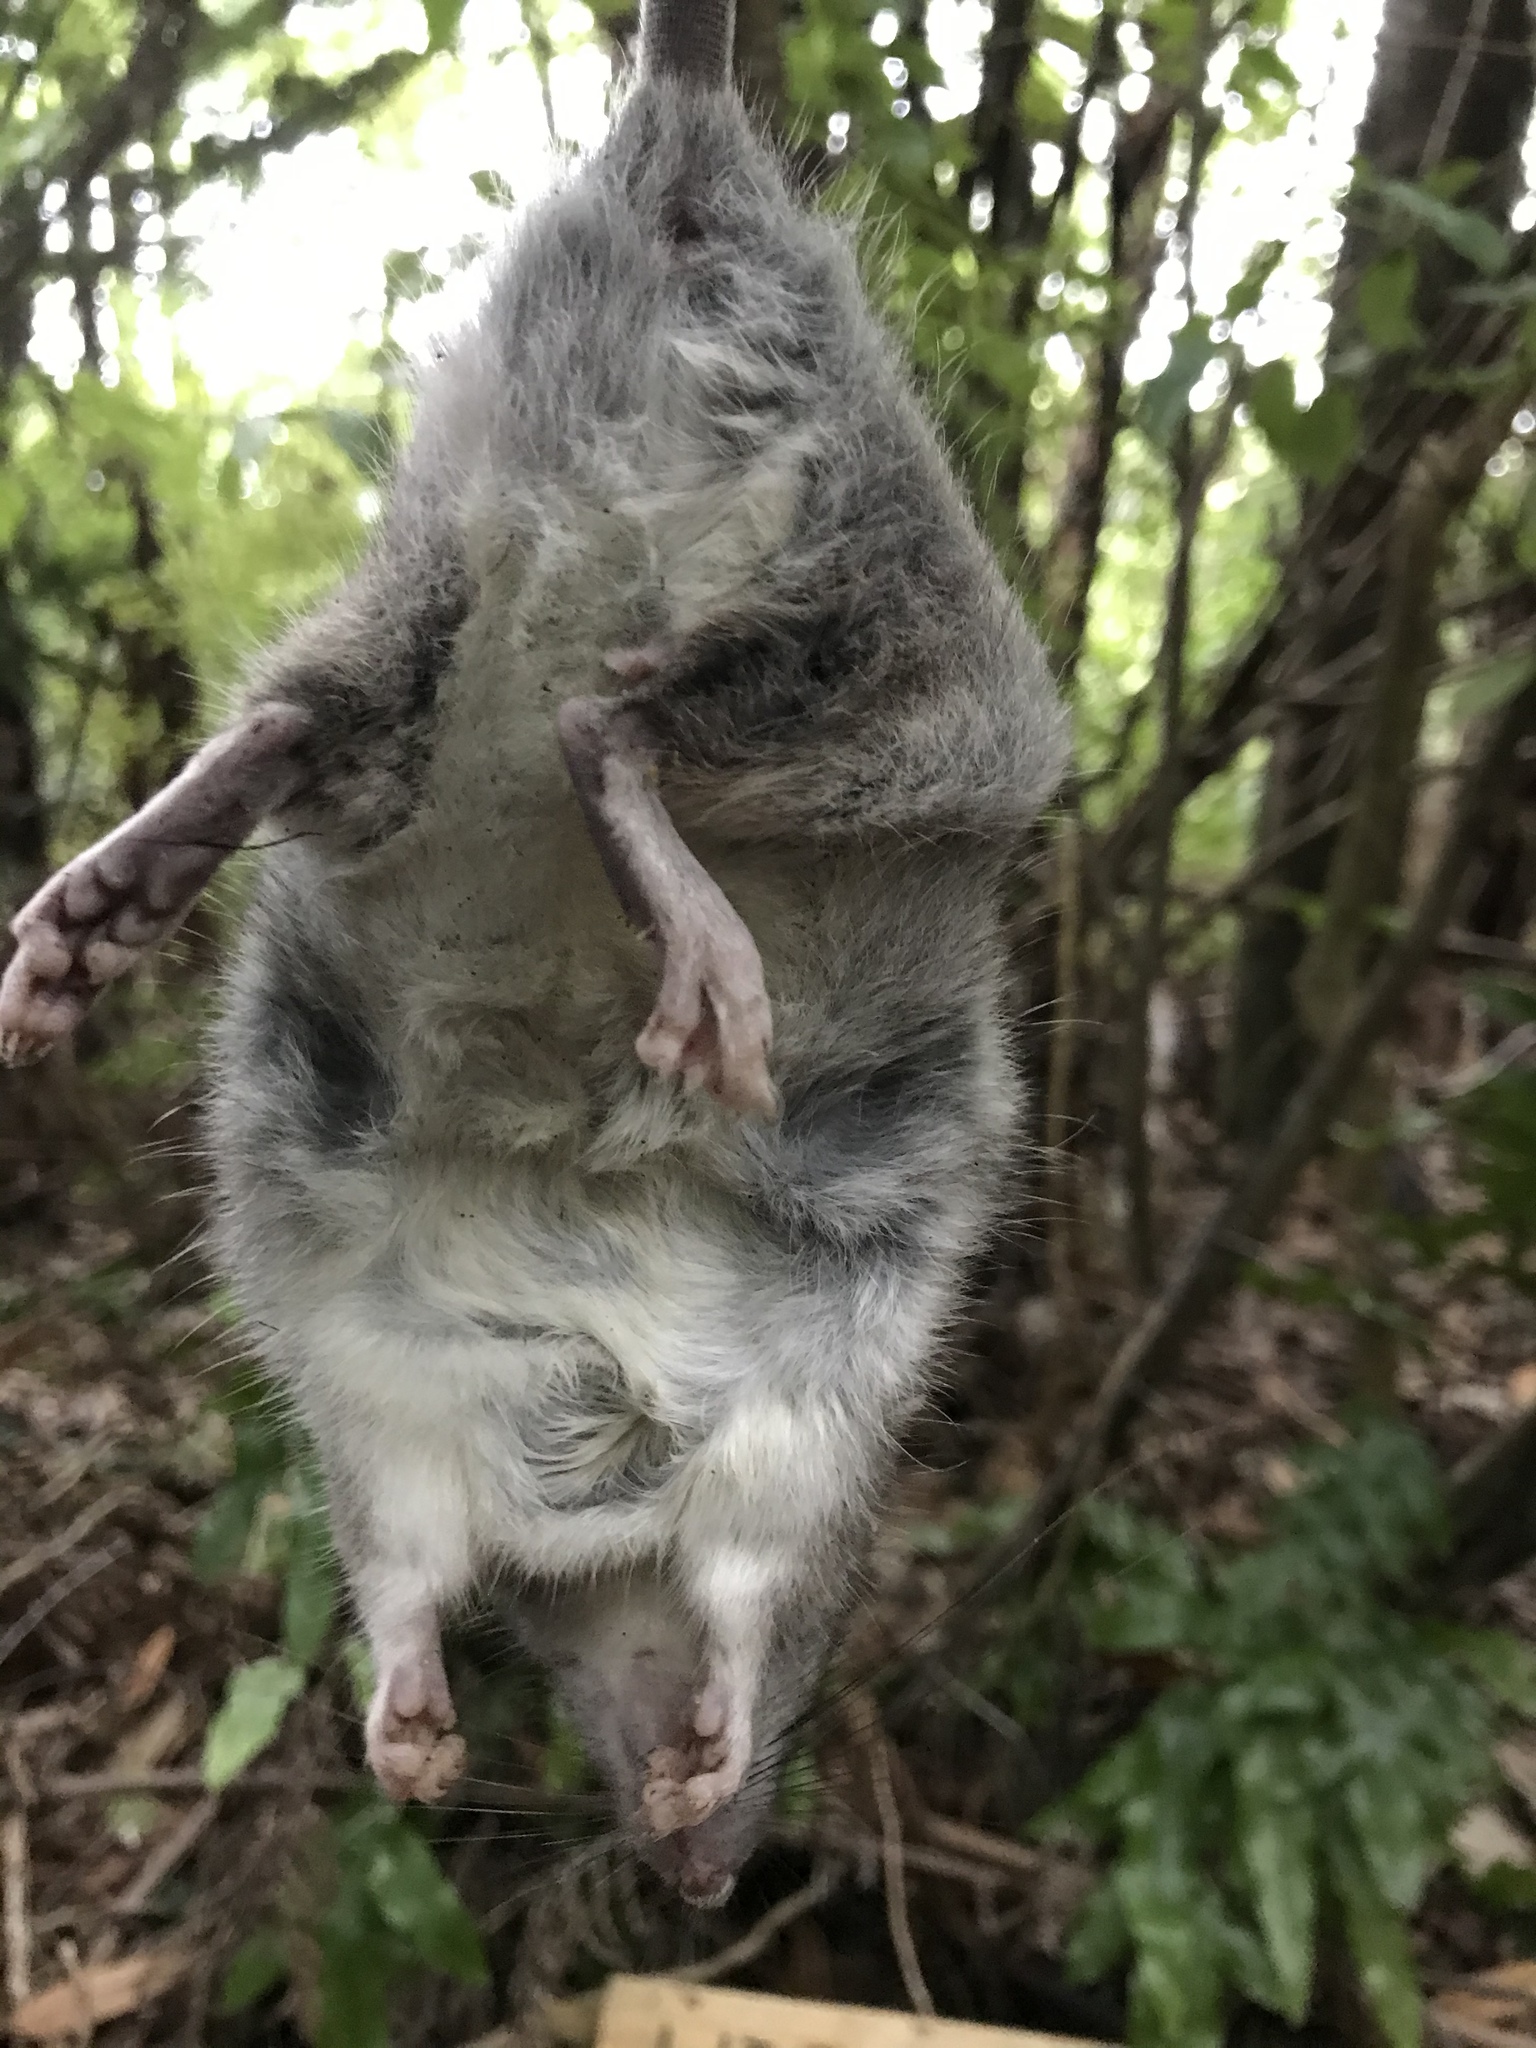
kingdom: Animalia
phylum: Chordata
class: Mammalia
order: Rodentia
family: Muridae
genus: Rattus
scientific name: Rattus rattus
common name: Black rat
